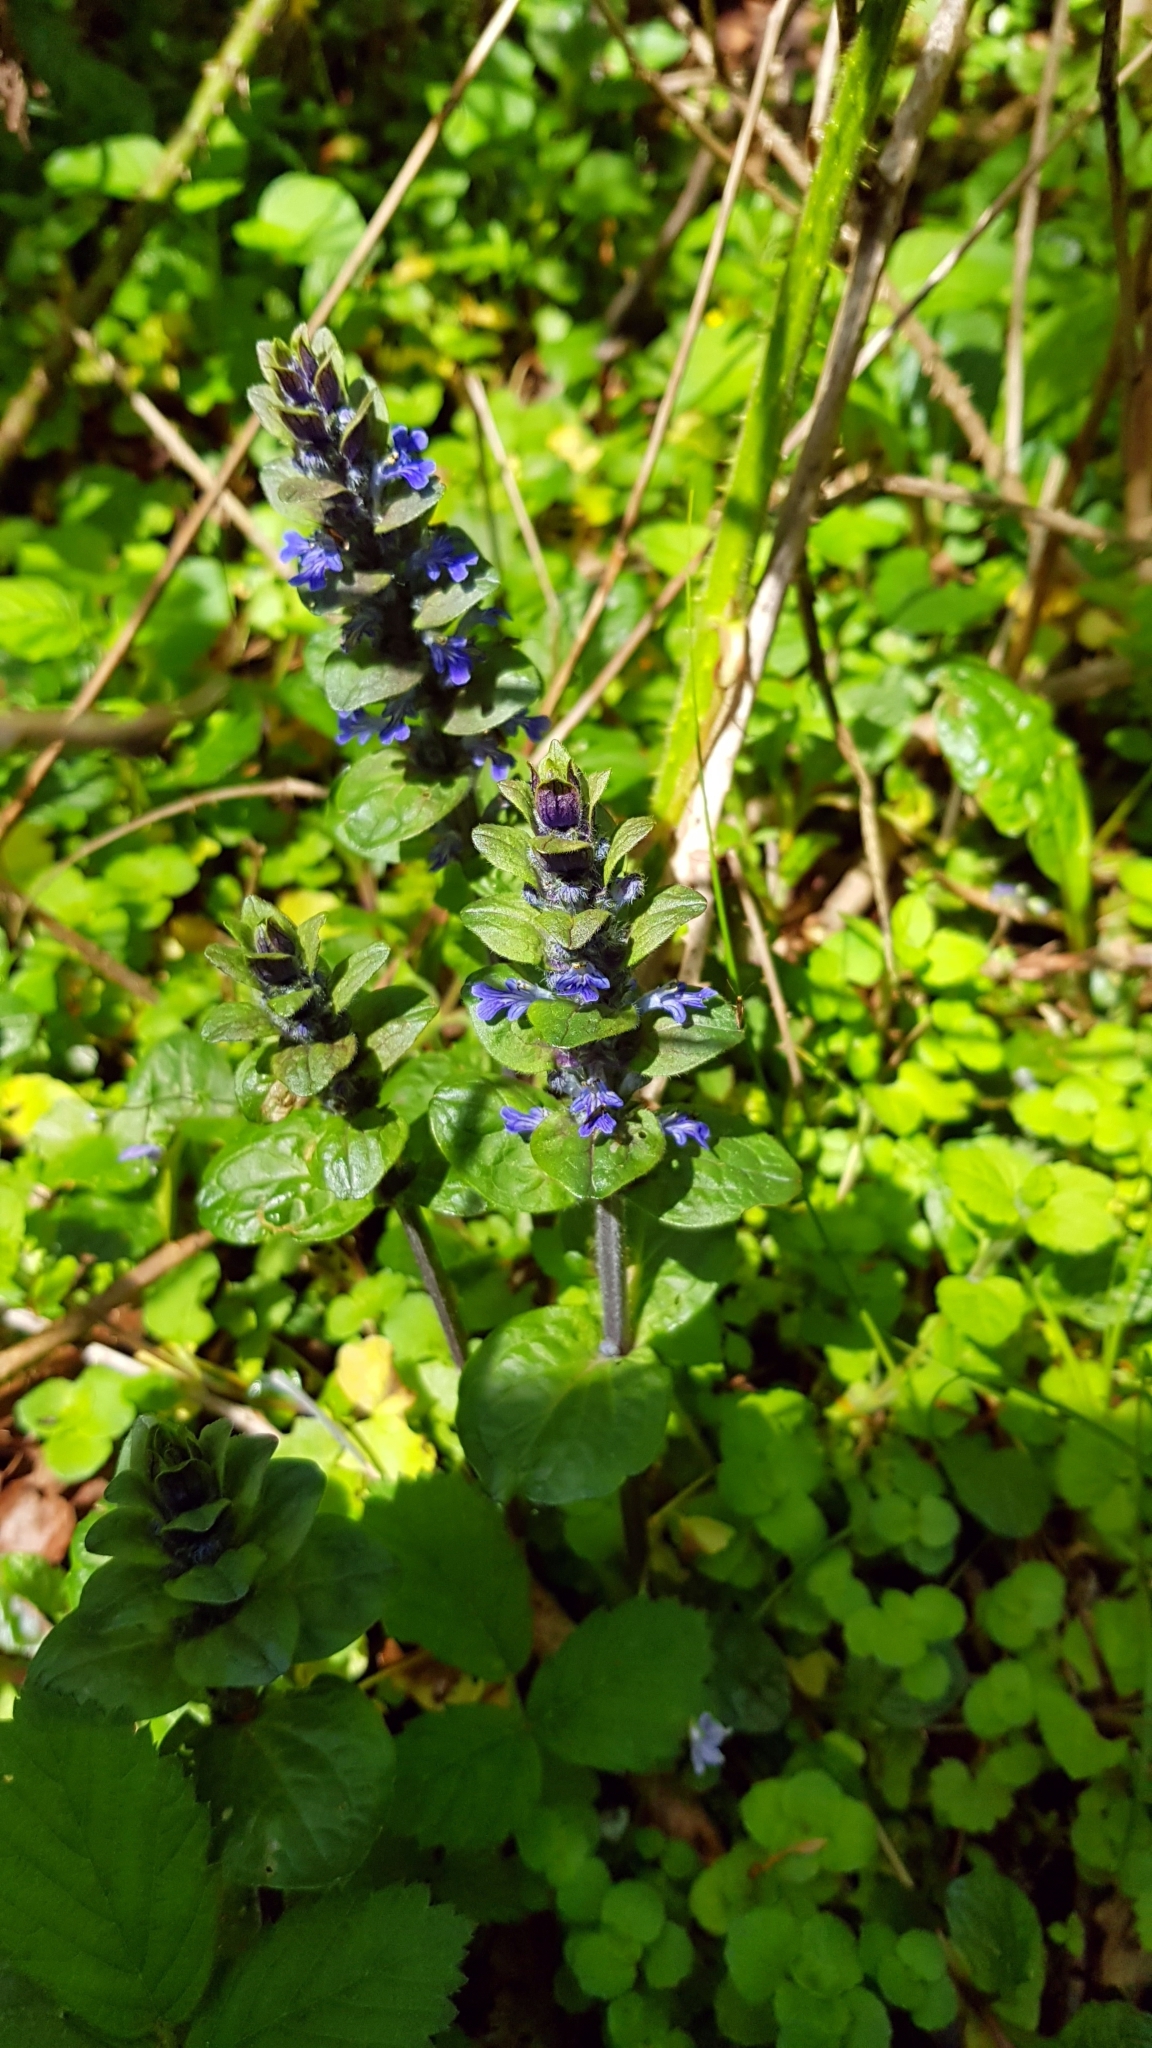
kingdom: Plantae
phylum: Tracheophyta
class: Magnoliopsida
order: Lamiales
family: Lamiaceae
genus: Ajuga
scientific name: Ajuga reptans
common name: Bugle
